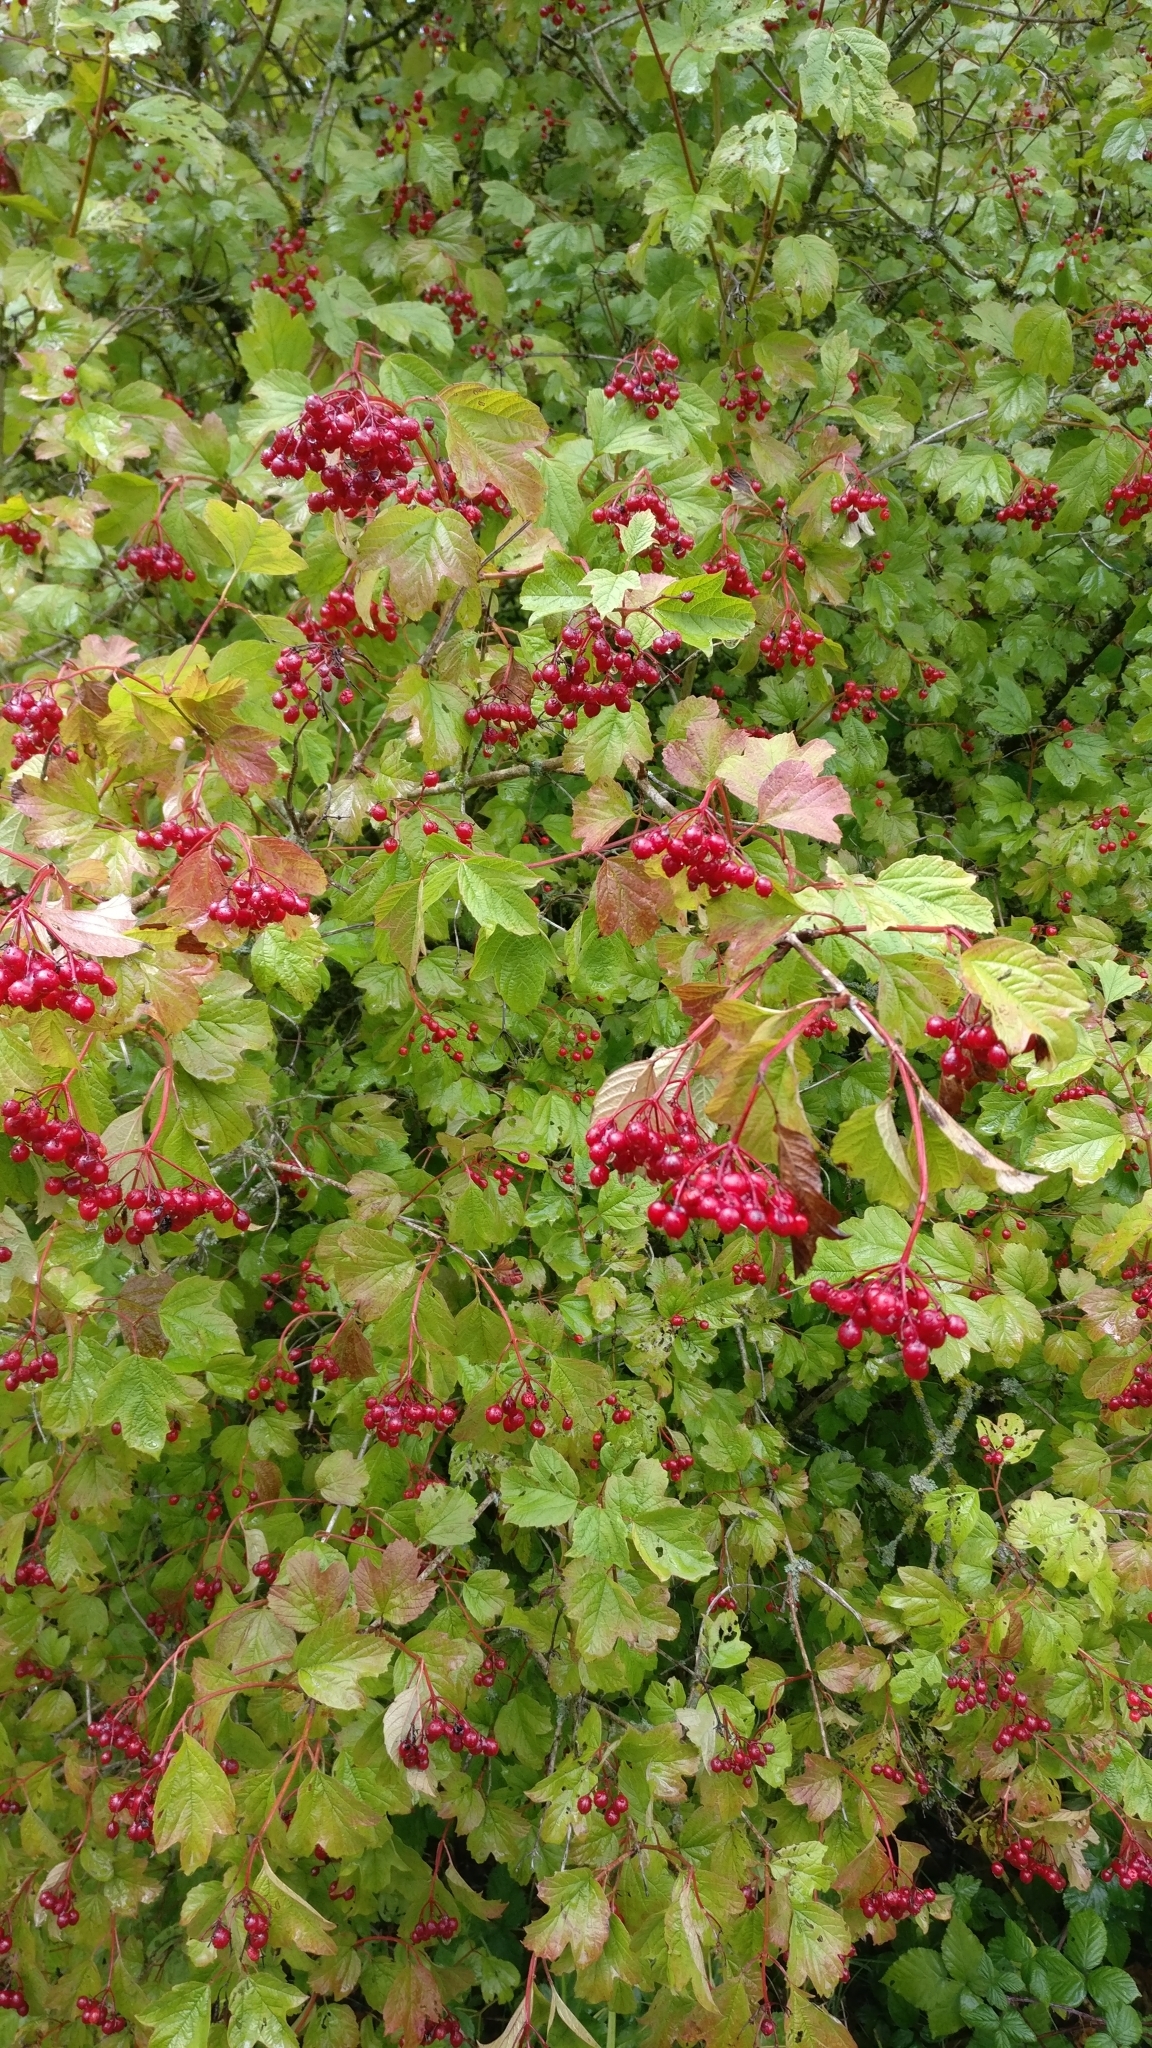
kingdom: Plantae
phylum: Tracheophyta
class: Magnoliopsida
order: Dipsacales
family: Viburnaceae
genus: Viburnum
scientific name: Viburnum opulus
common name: Guelder-rose
